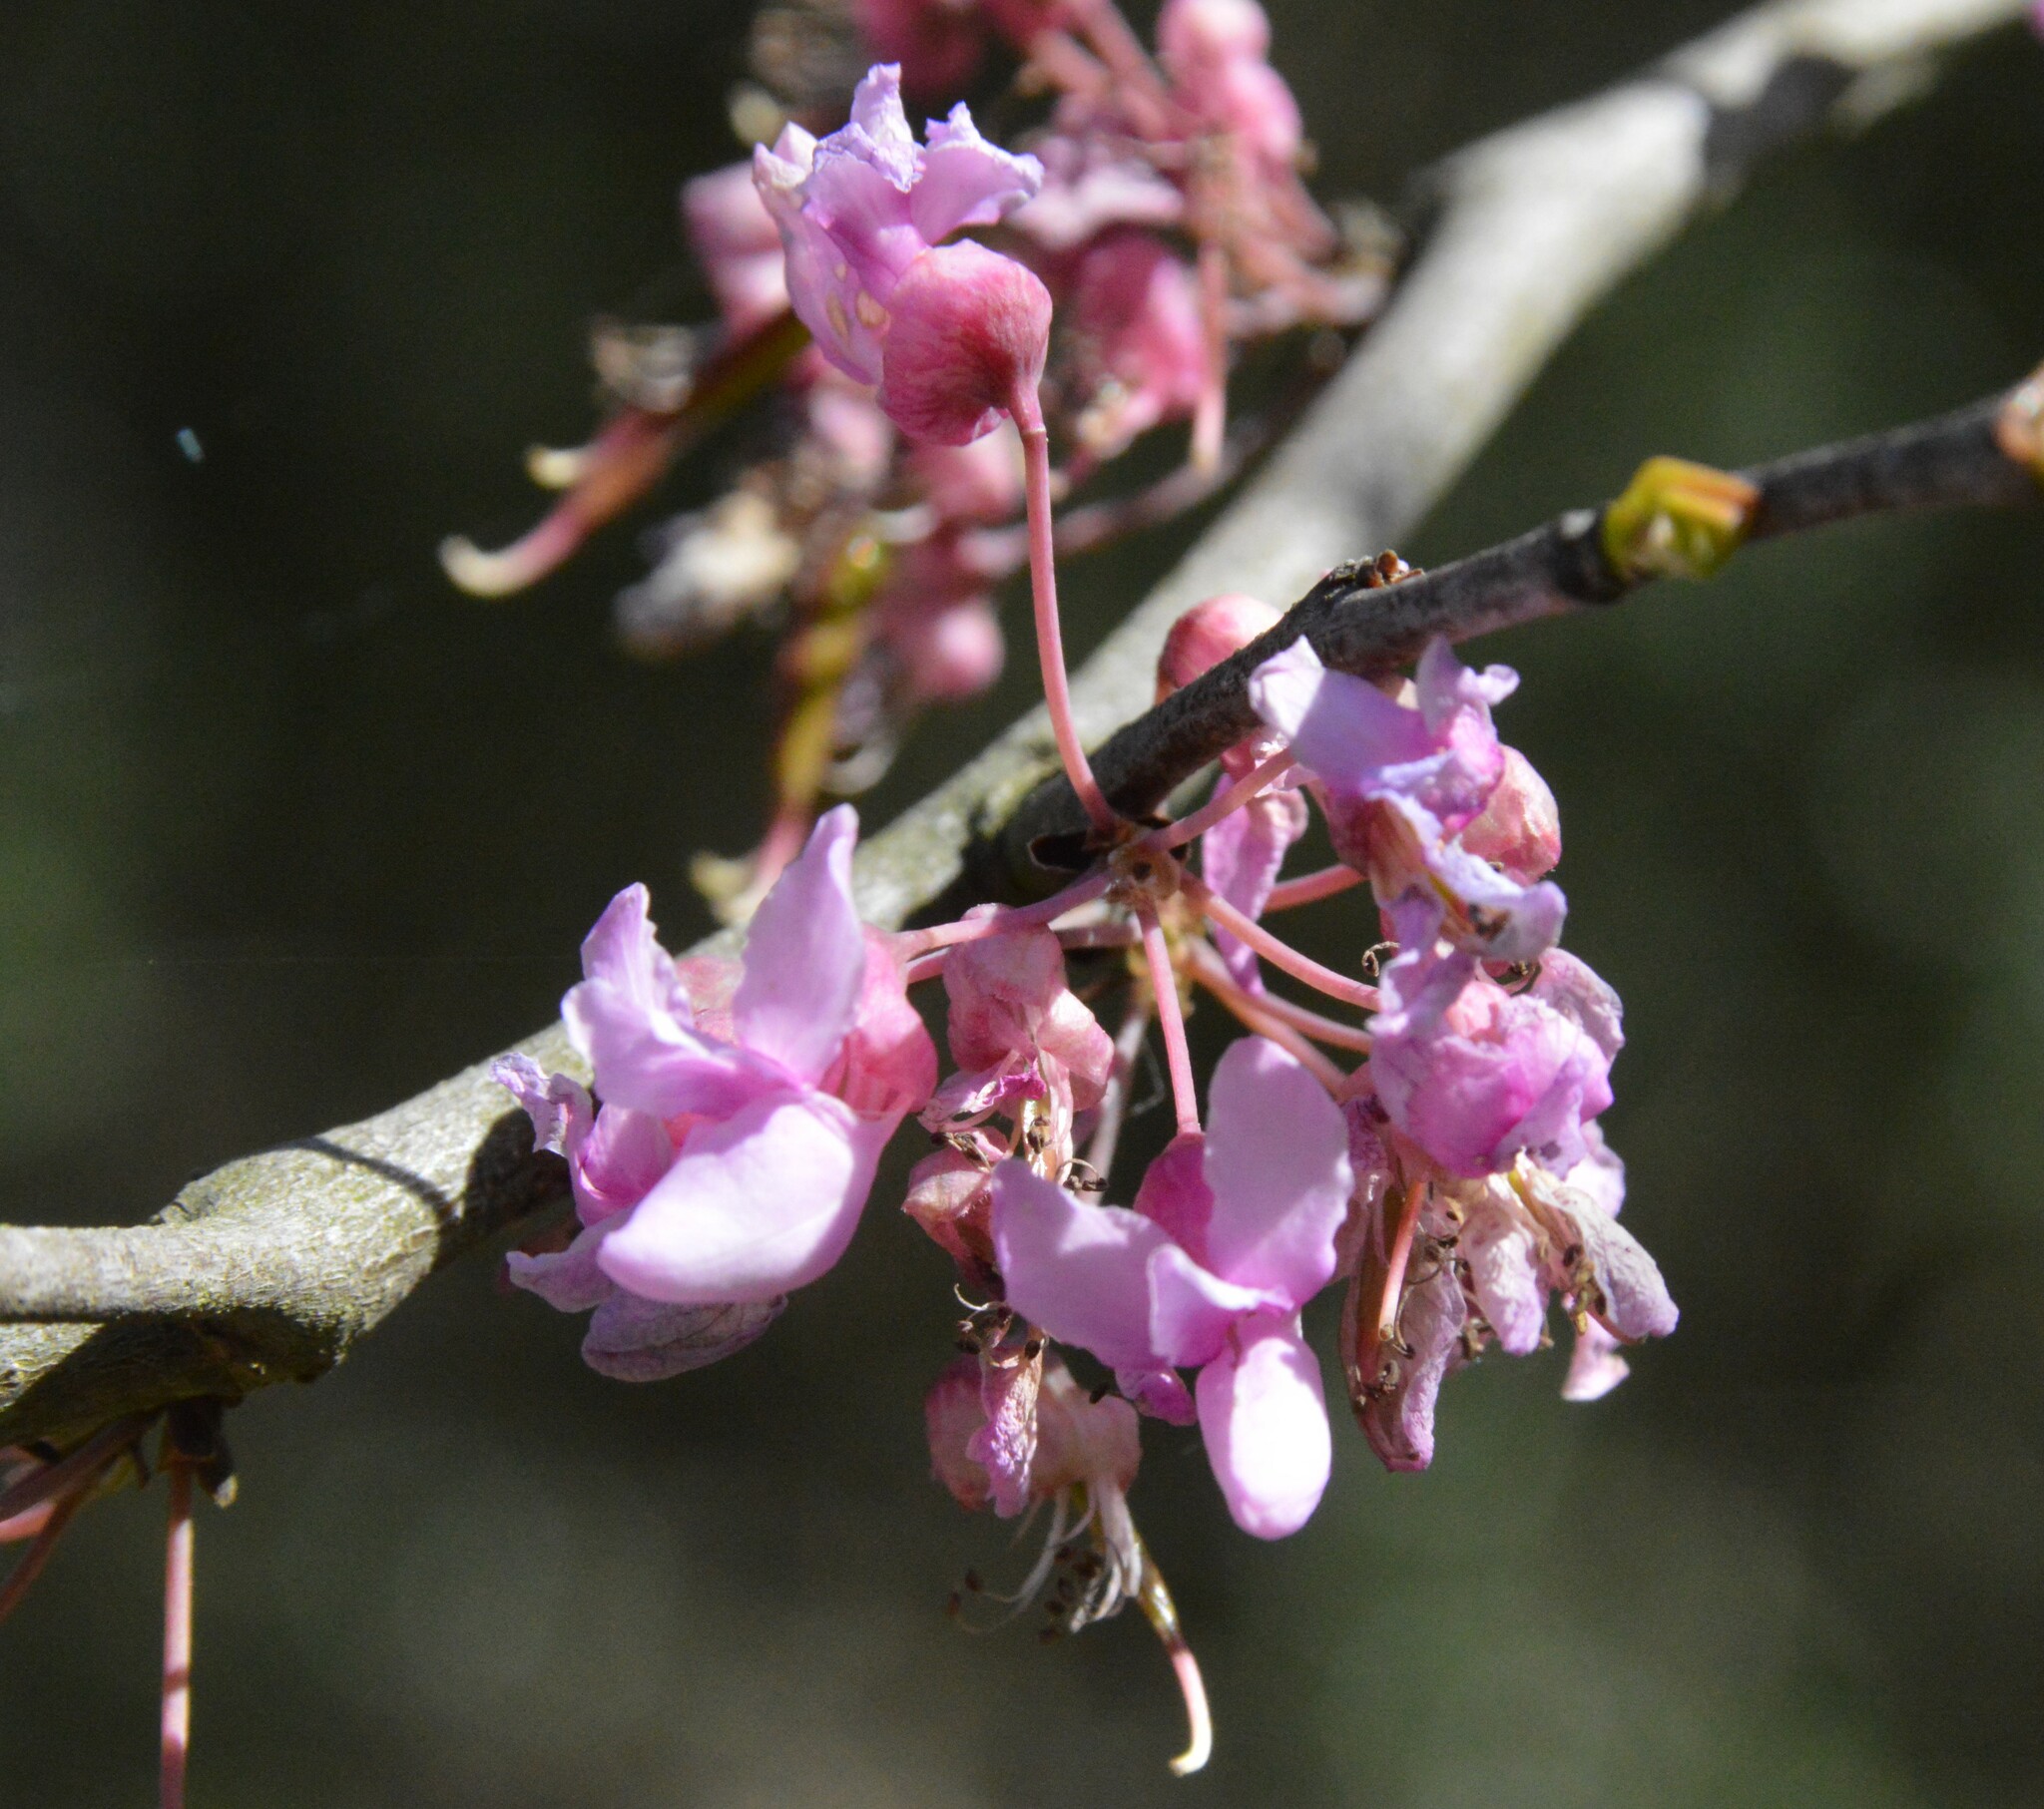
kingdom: Plantae
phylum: Tracheophyta
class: Magnoliopsida
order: Fabales
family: Fabaceae
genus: Cercis
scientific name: Cercis canadensis
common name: Eastern redbud
